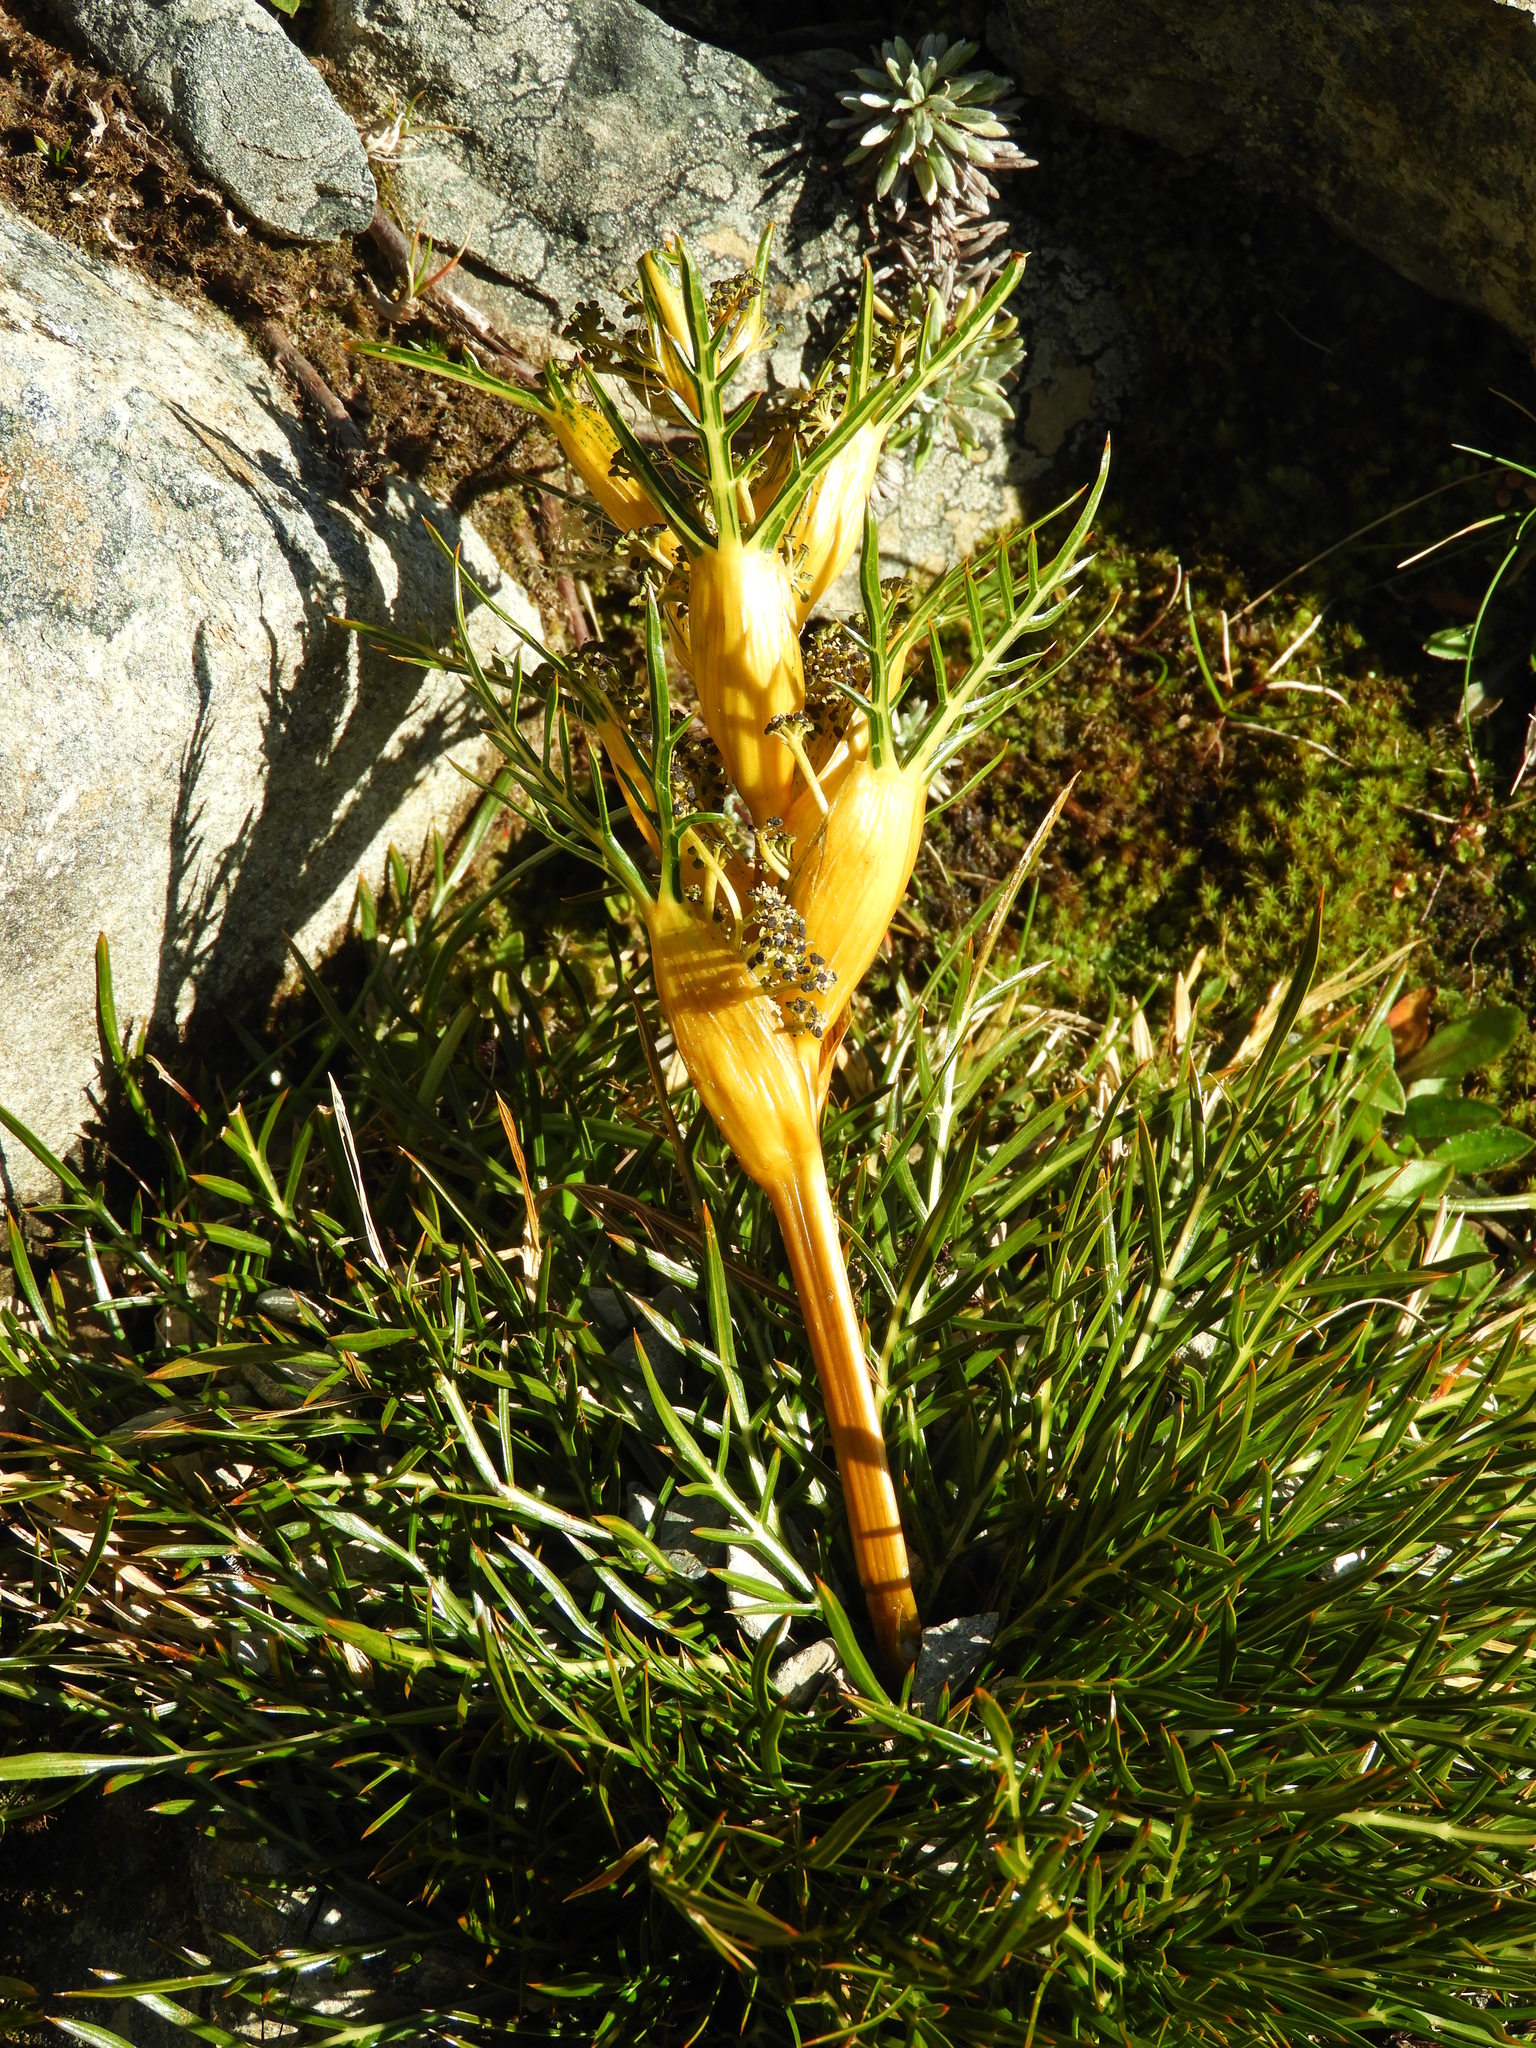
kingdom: Plantae
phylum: Tracheophyta
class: Magnoliopsida
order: Apiales
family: Apiaceae
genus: Aciphylla
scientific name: Aciphylla pinnatifida
